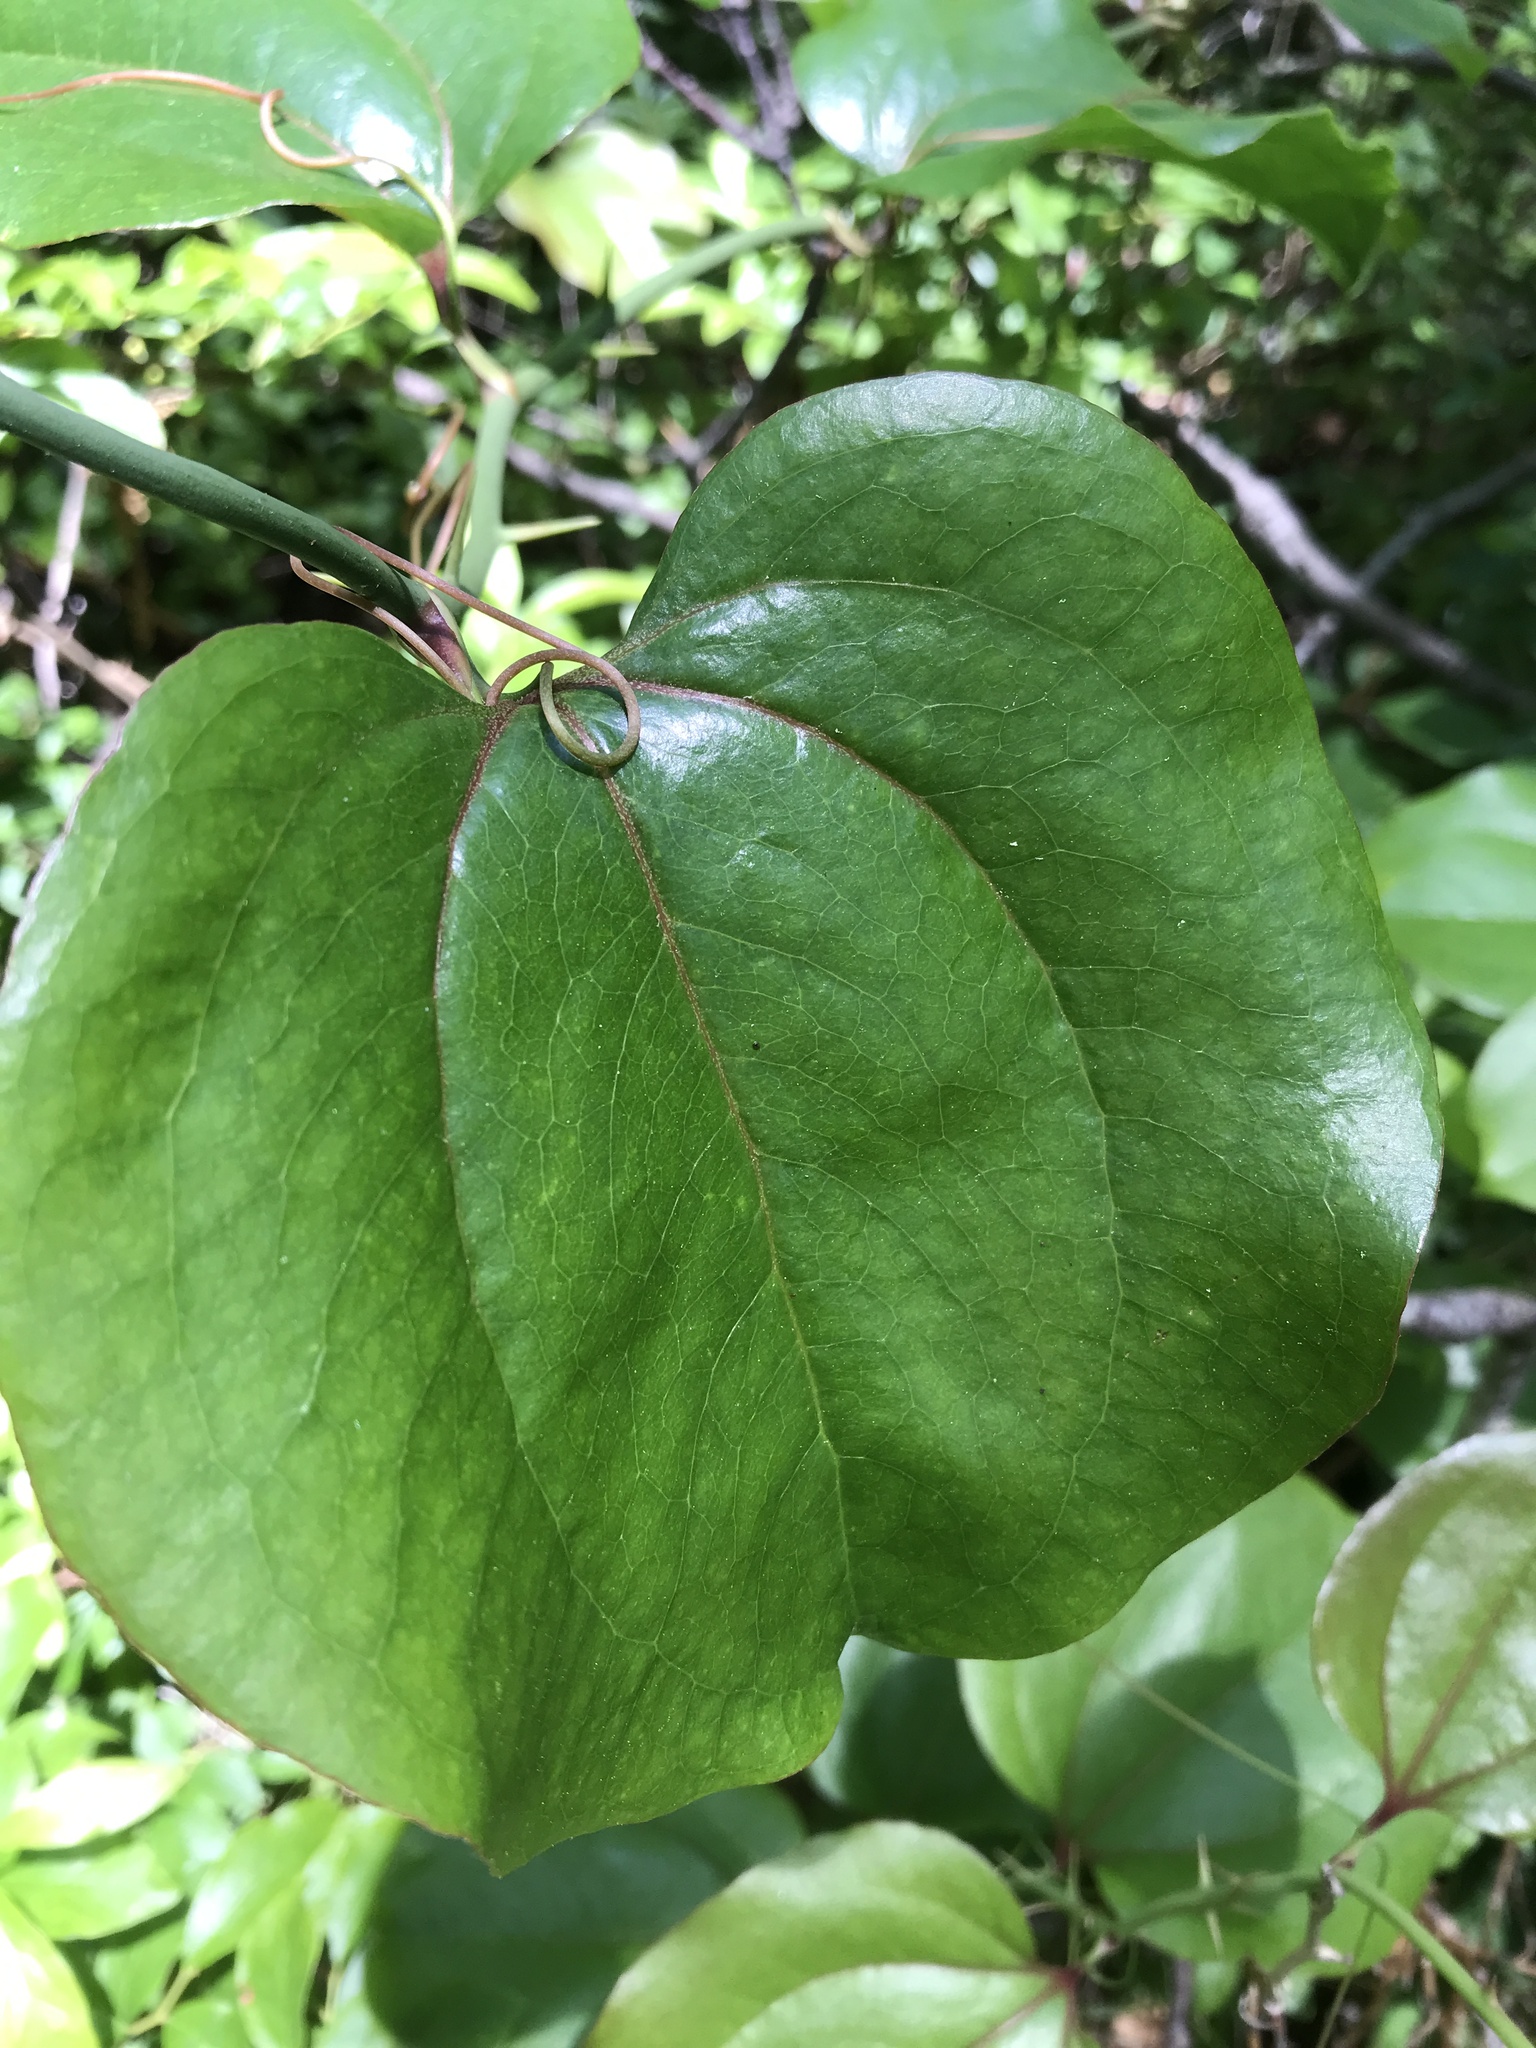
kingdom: Plantae
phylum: Tracheophyta
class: Liliopsida
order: Liliales
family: Smilacaceae
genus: Smilax
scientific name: Smilax rotundifolia
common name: Bullbriar
